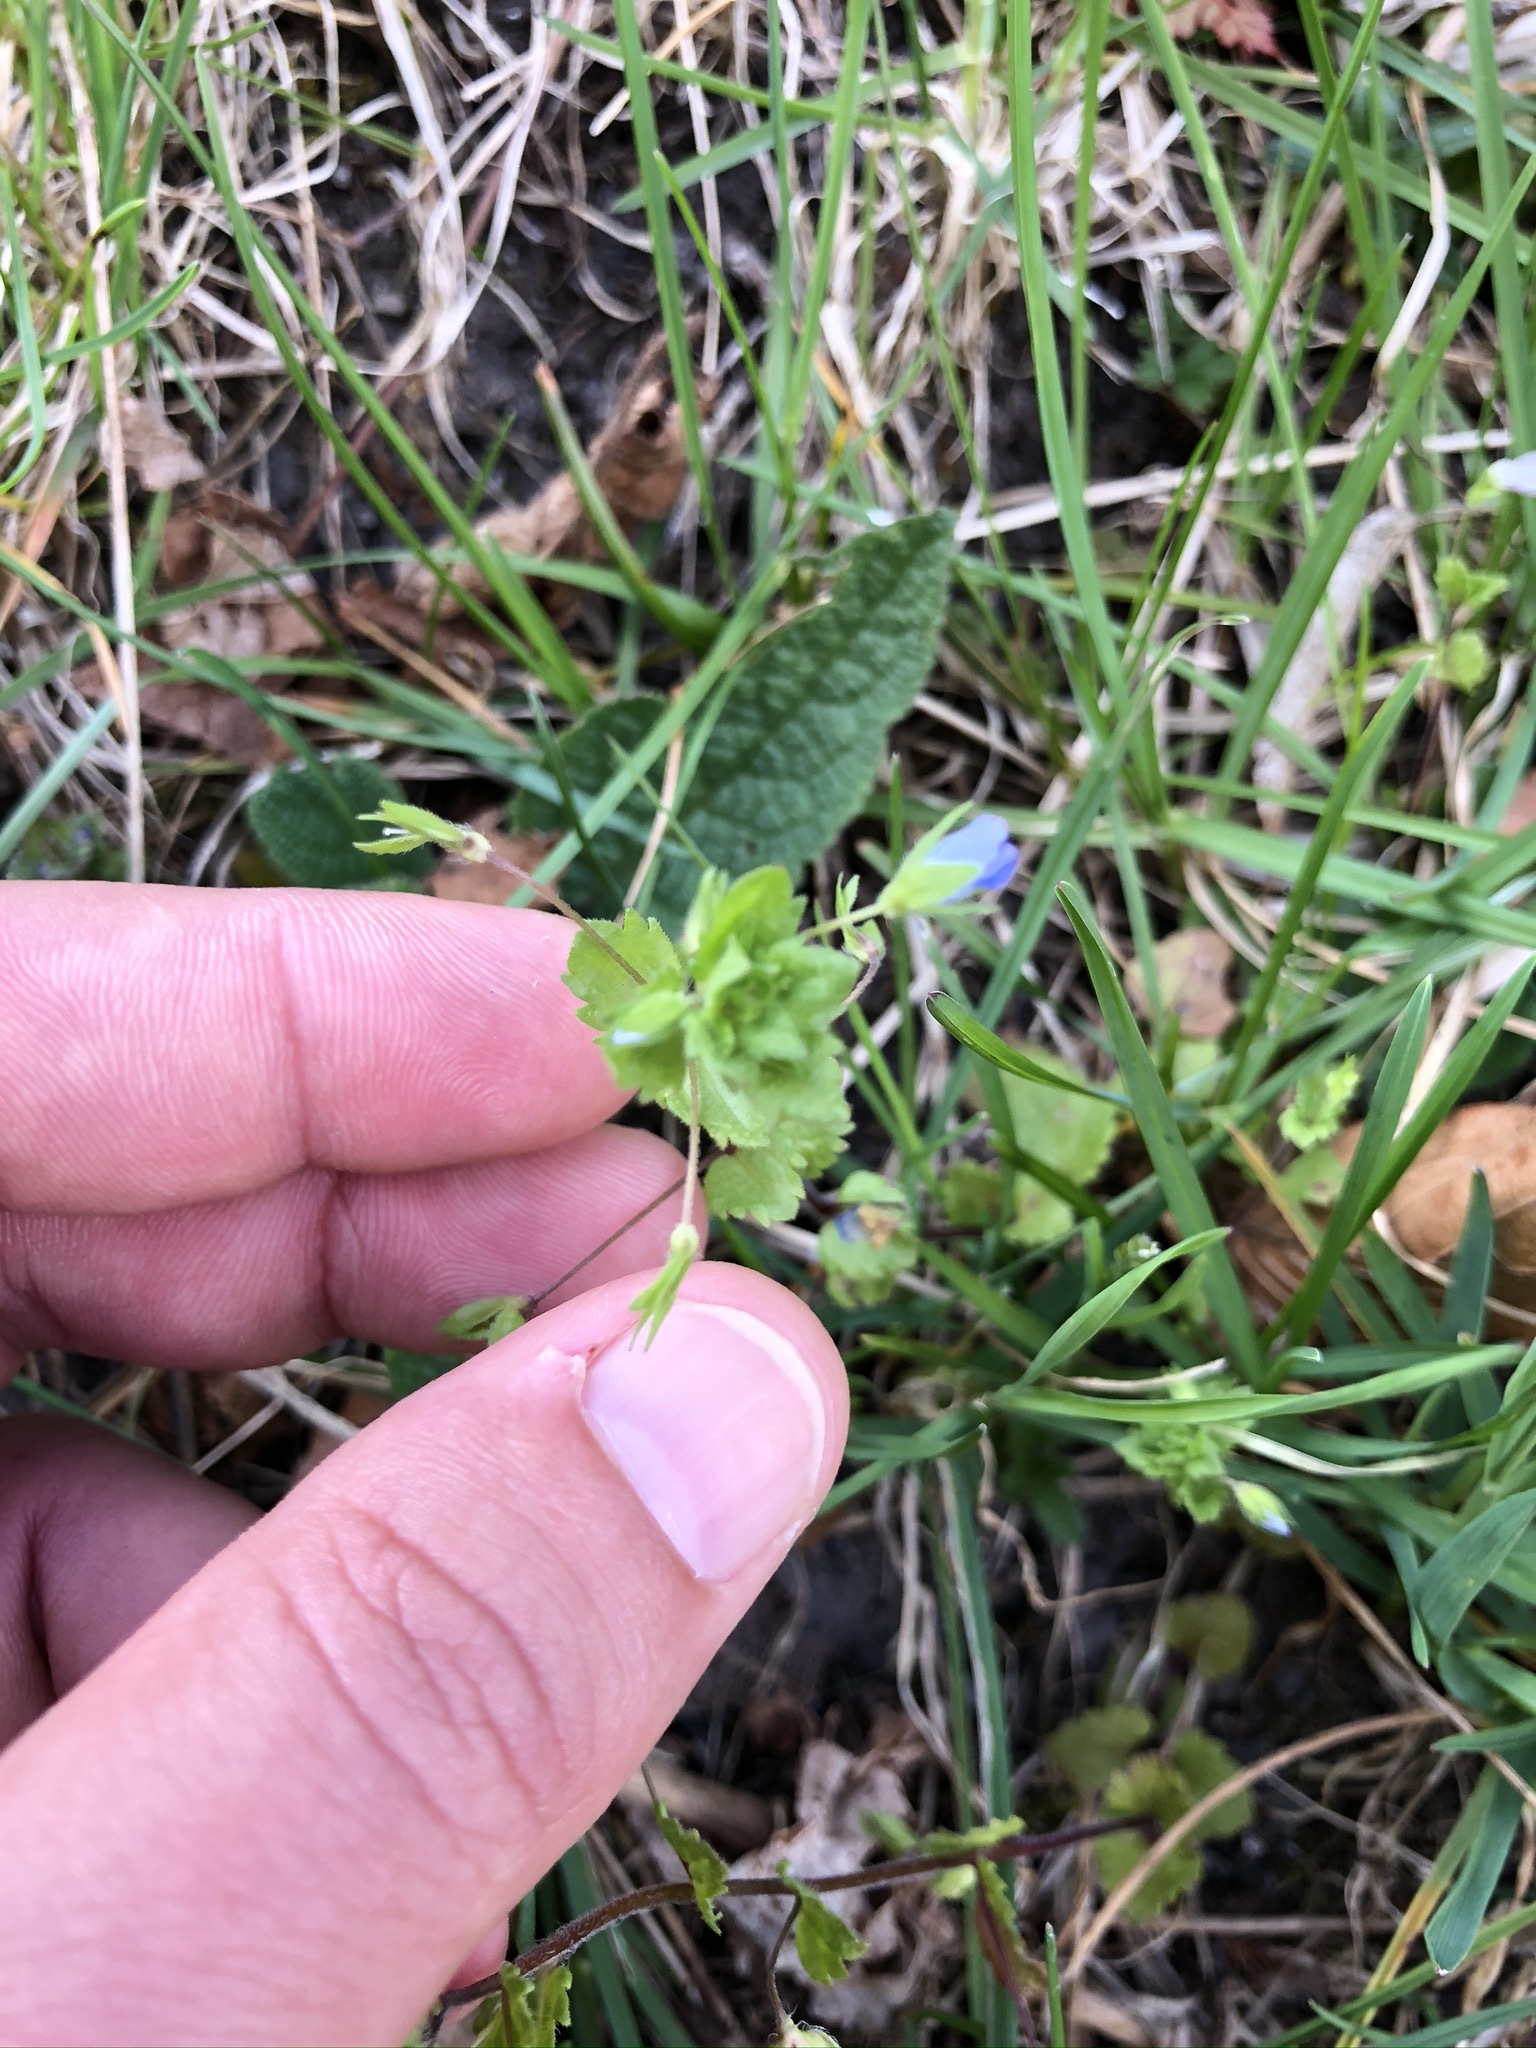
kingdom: Plantae
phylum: Tracheophyta
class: Magnoliopsida
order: Lamiales
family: Plantaginaceae
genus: Veronica
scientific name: Veronica persica
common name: Common field-speedwell
